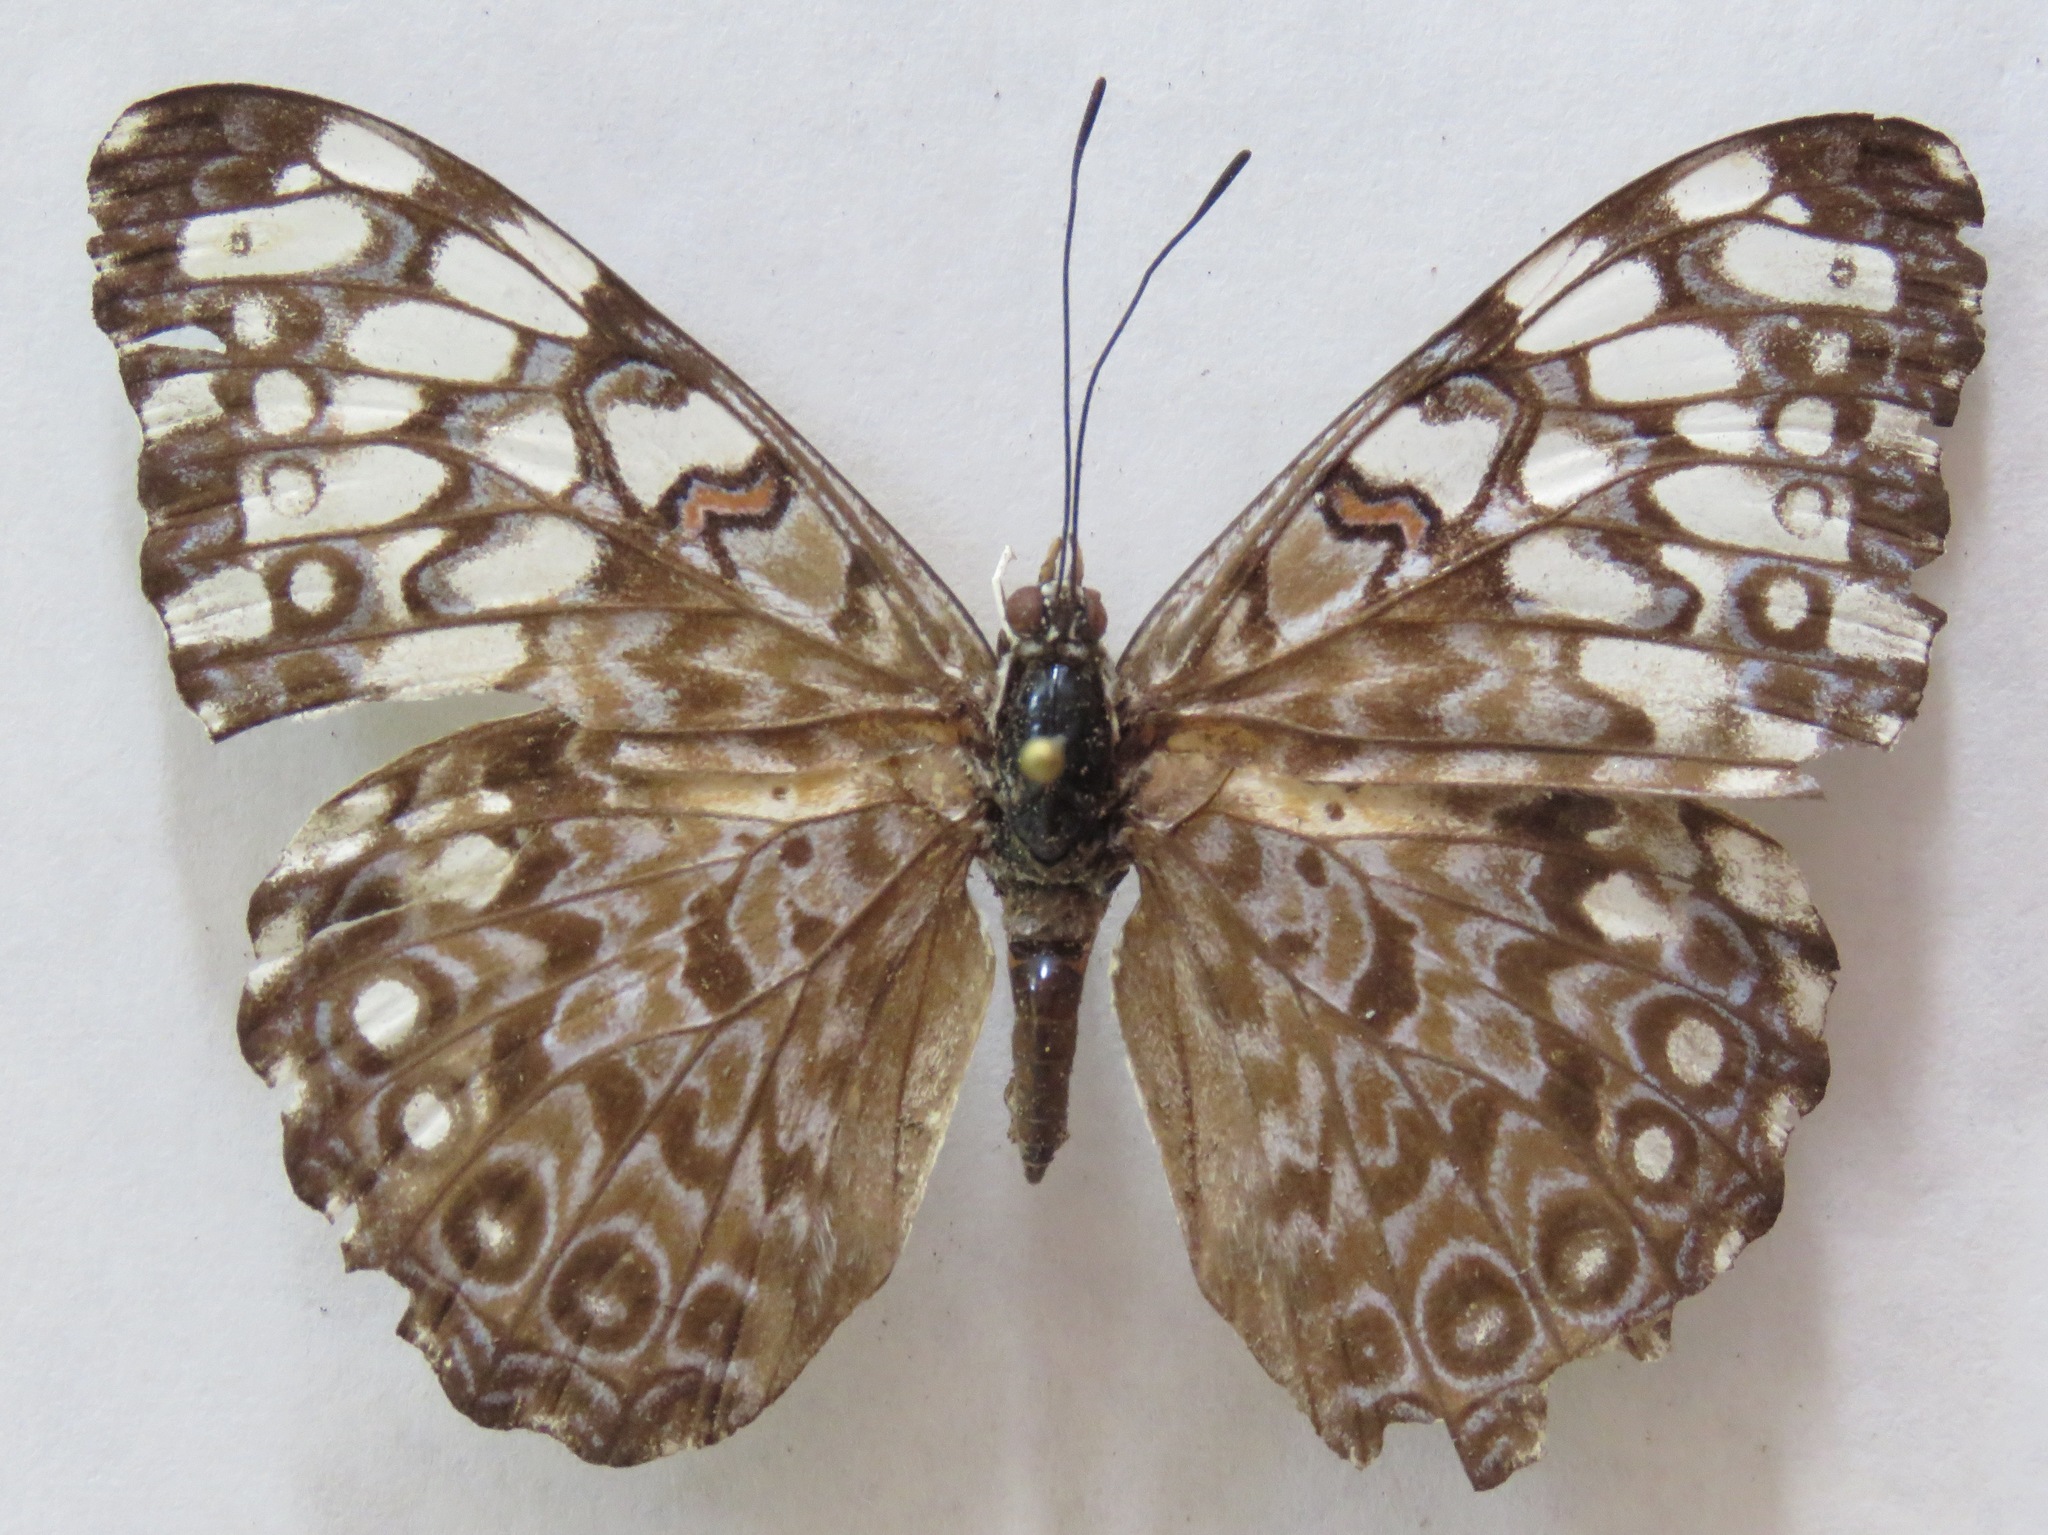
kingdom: Animalia
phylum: Arthropoda
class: Insecta
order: Lepidoptera
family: Nymphalidae
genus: Hamadryas
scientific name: Hamadryas feronia
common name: Variable cracker
